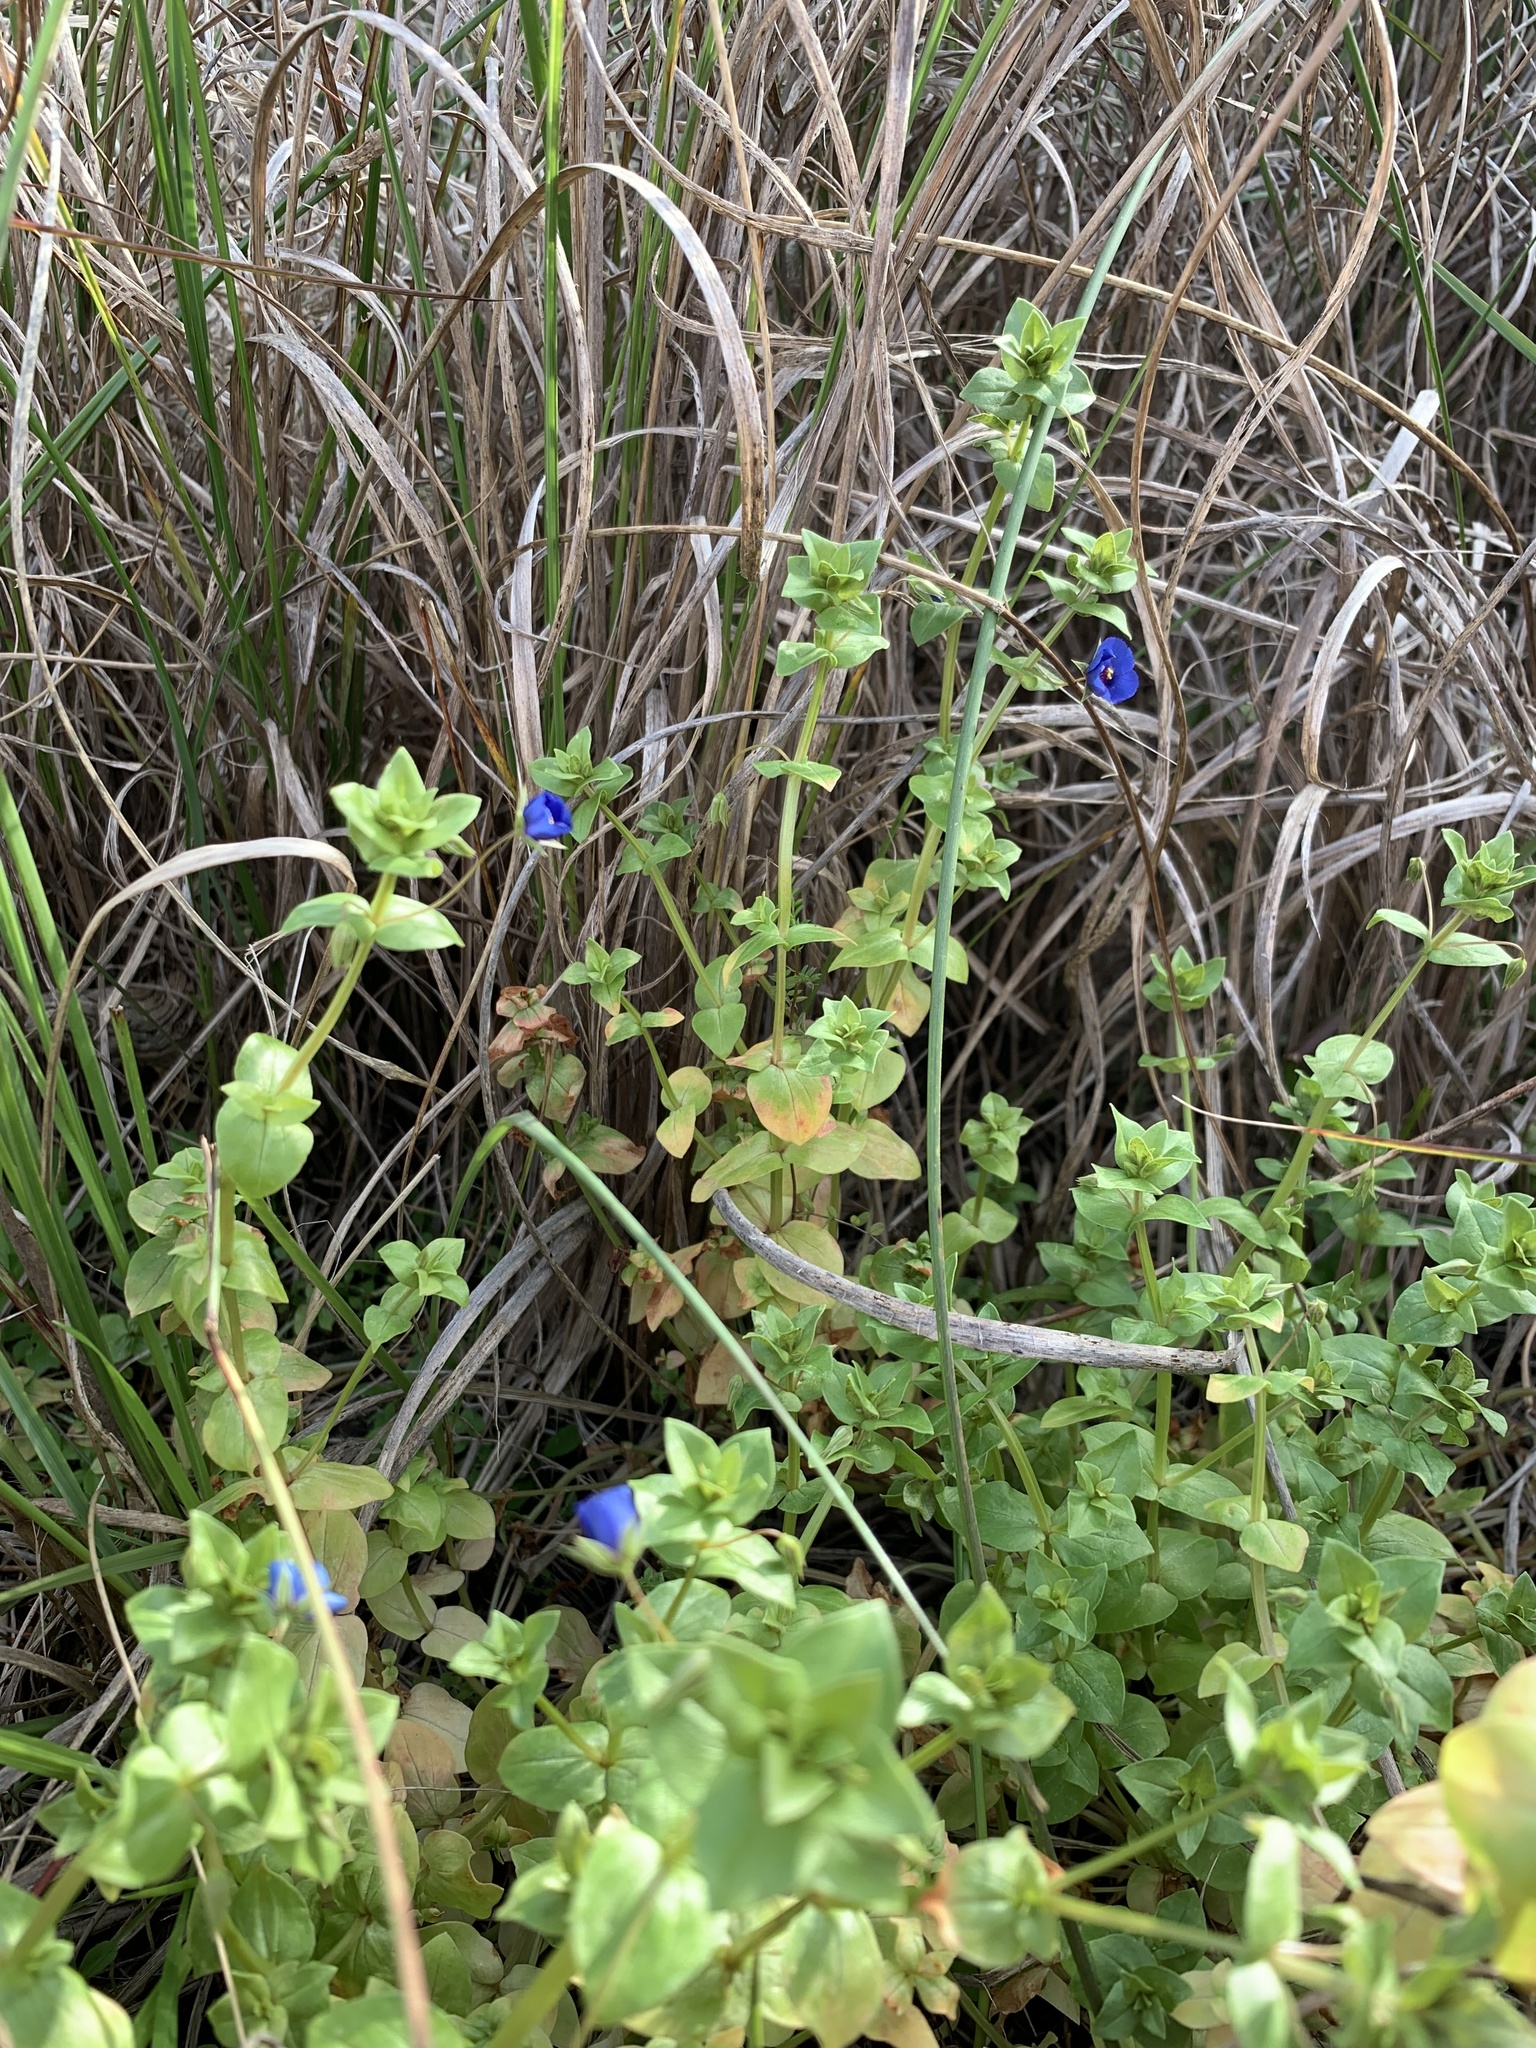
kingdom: Plantae
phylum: Tracheophyta
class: Magnoliopsida
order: Ericales
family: Primulaceae
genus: Lysimachia
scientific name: Lysimachia loeflingii
